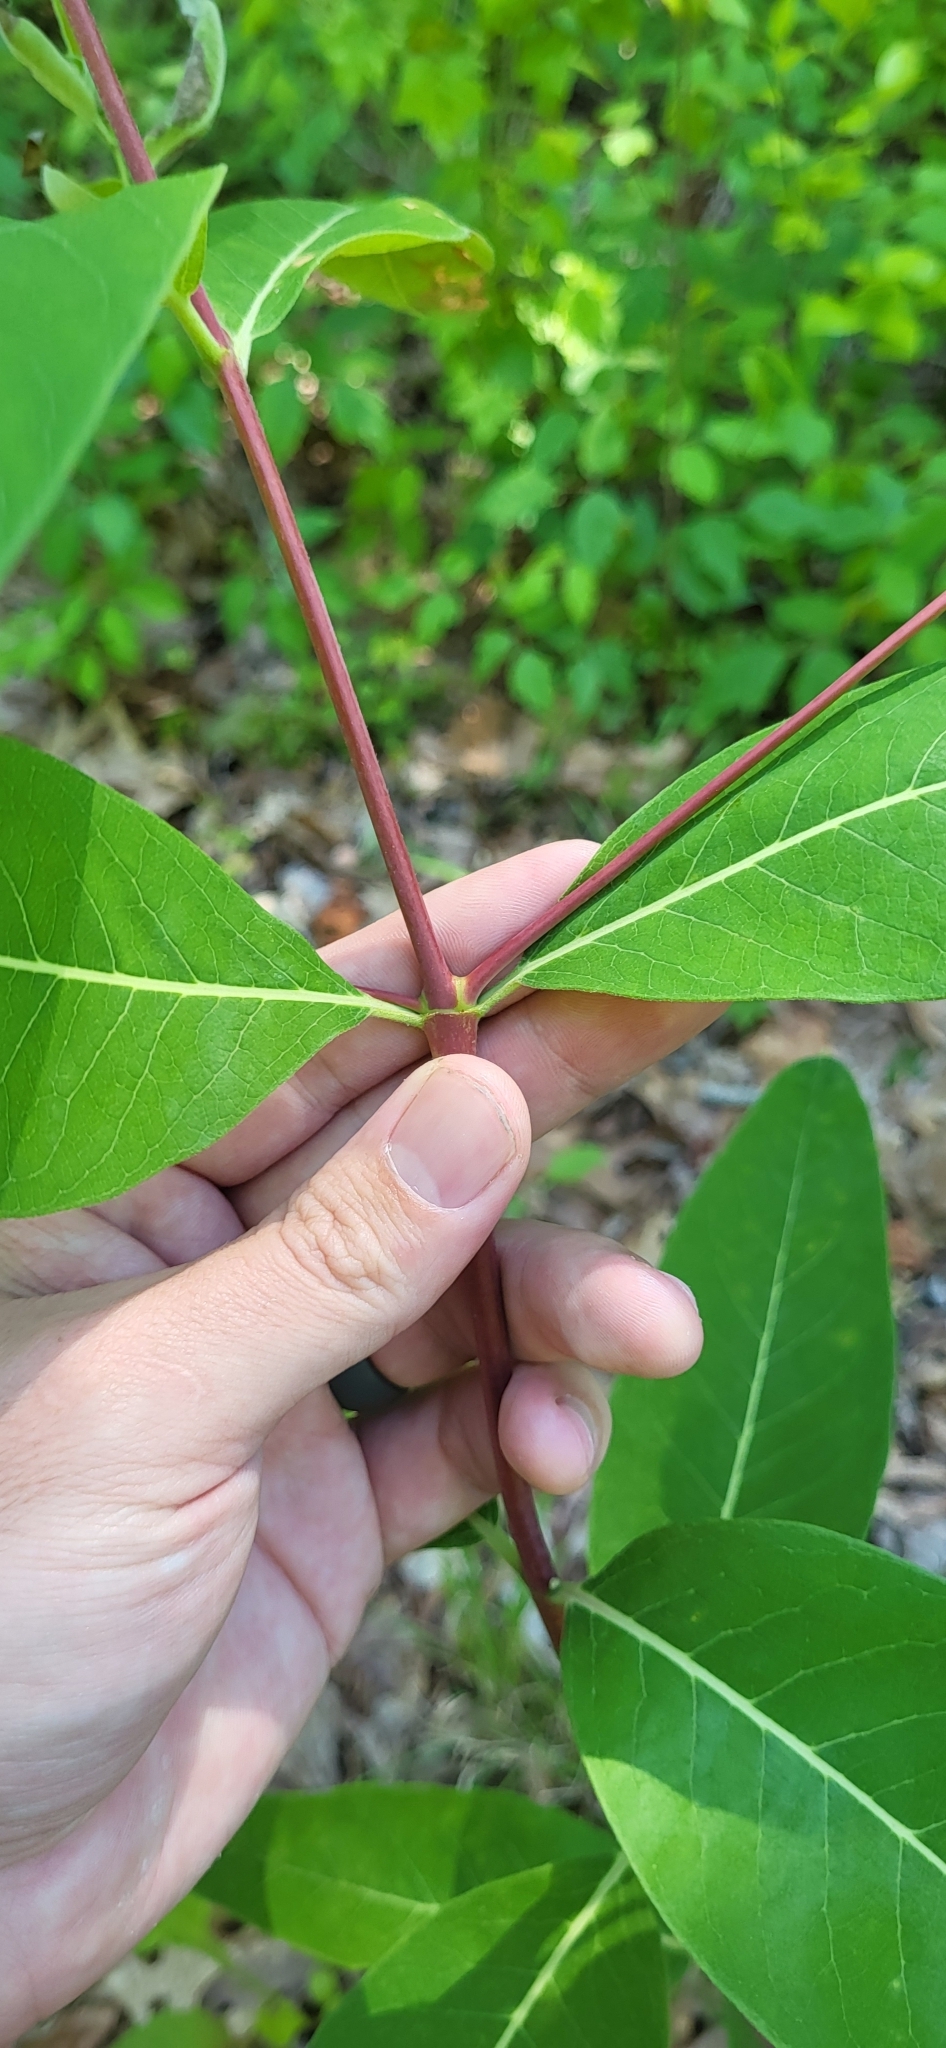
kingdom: Plantae
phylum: Tracheophyta
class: Magnoliopsida
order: Gentianales
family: Apocynaceae
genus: Apocynum
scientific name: Apocynum cannabinum
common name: Hemp dogbane
